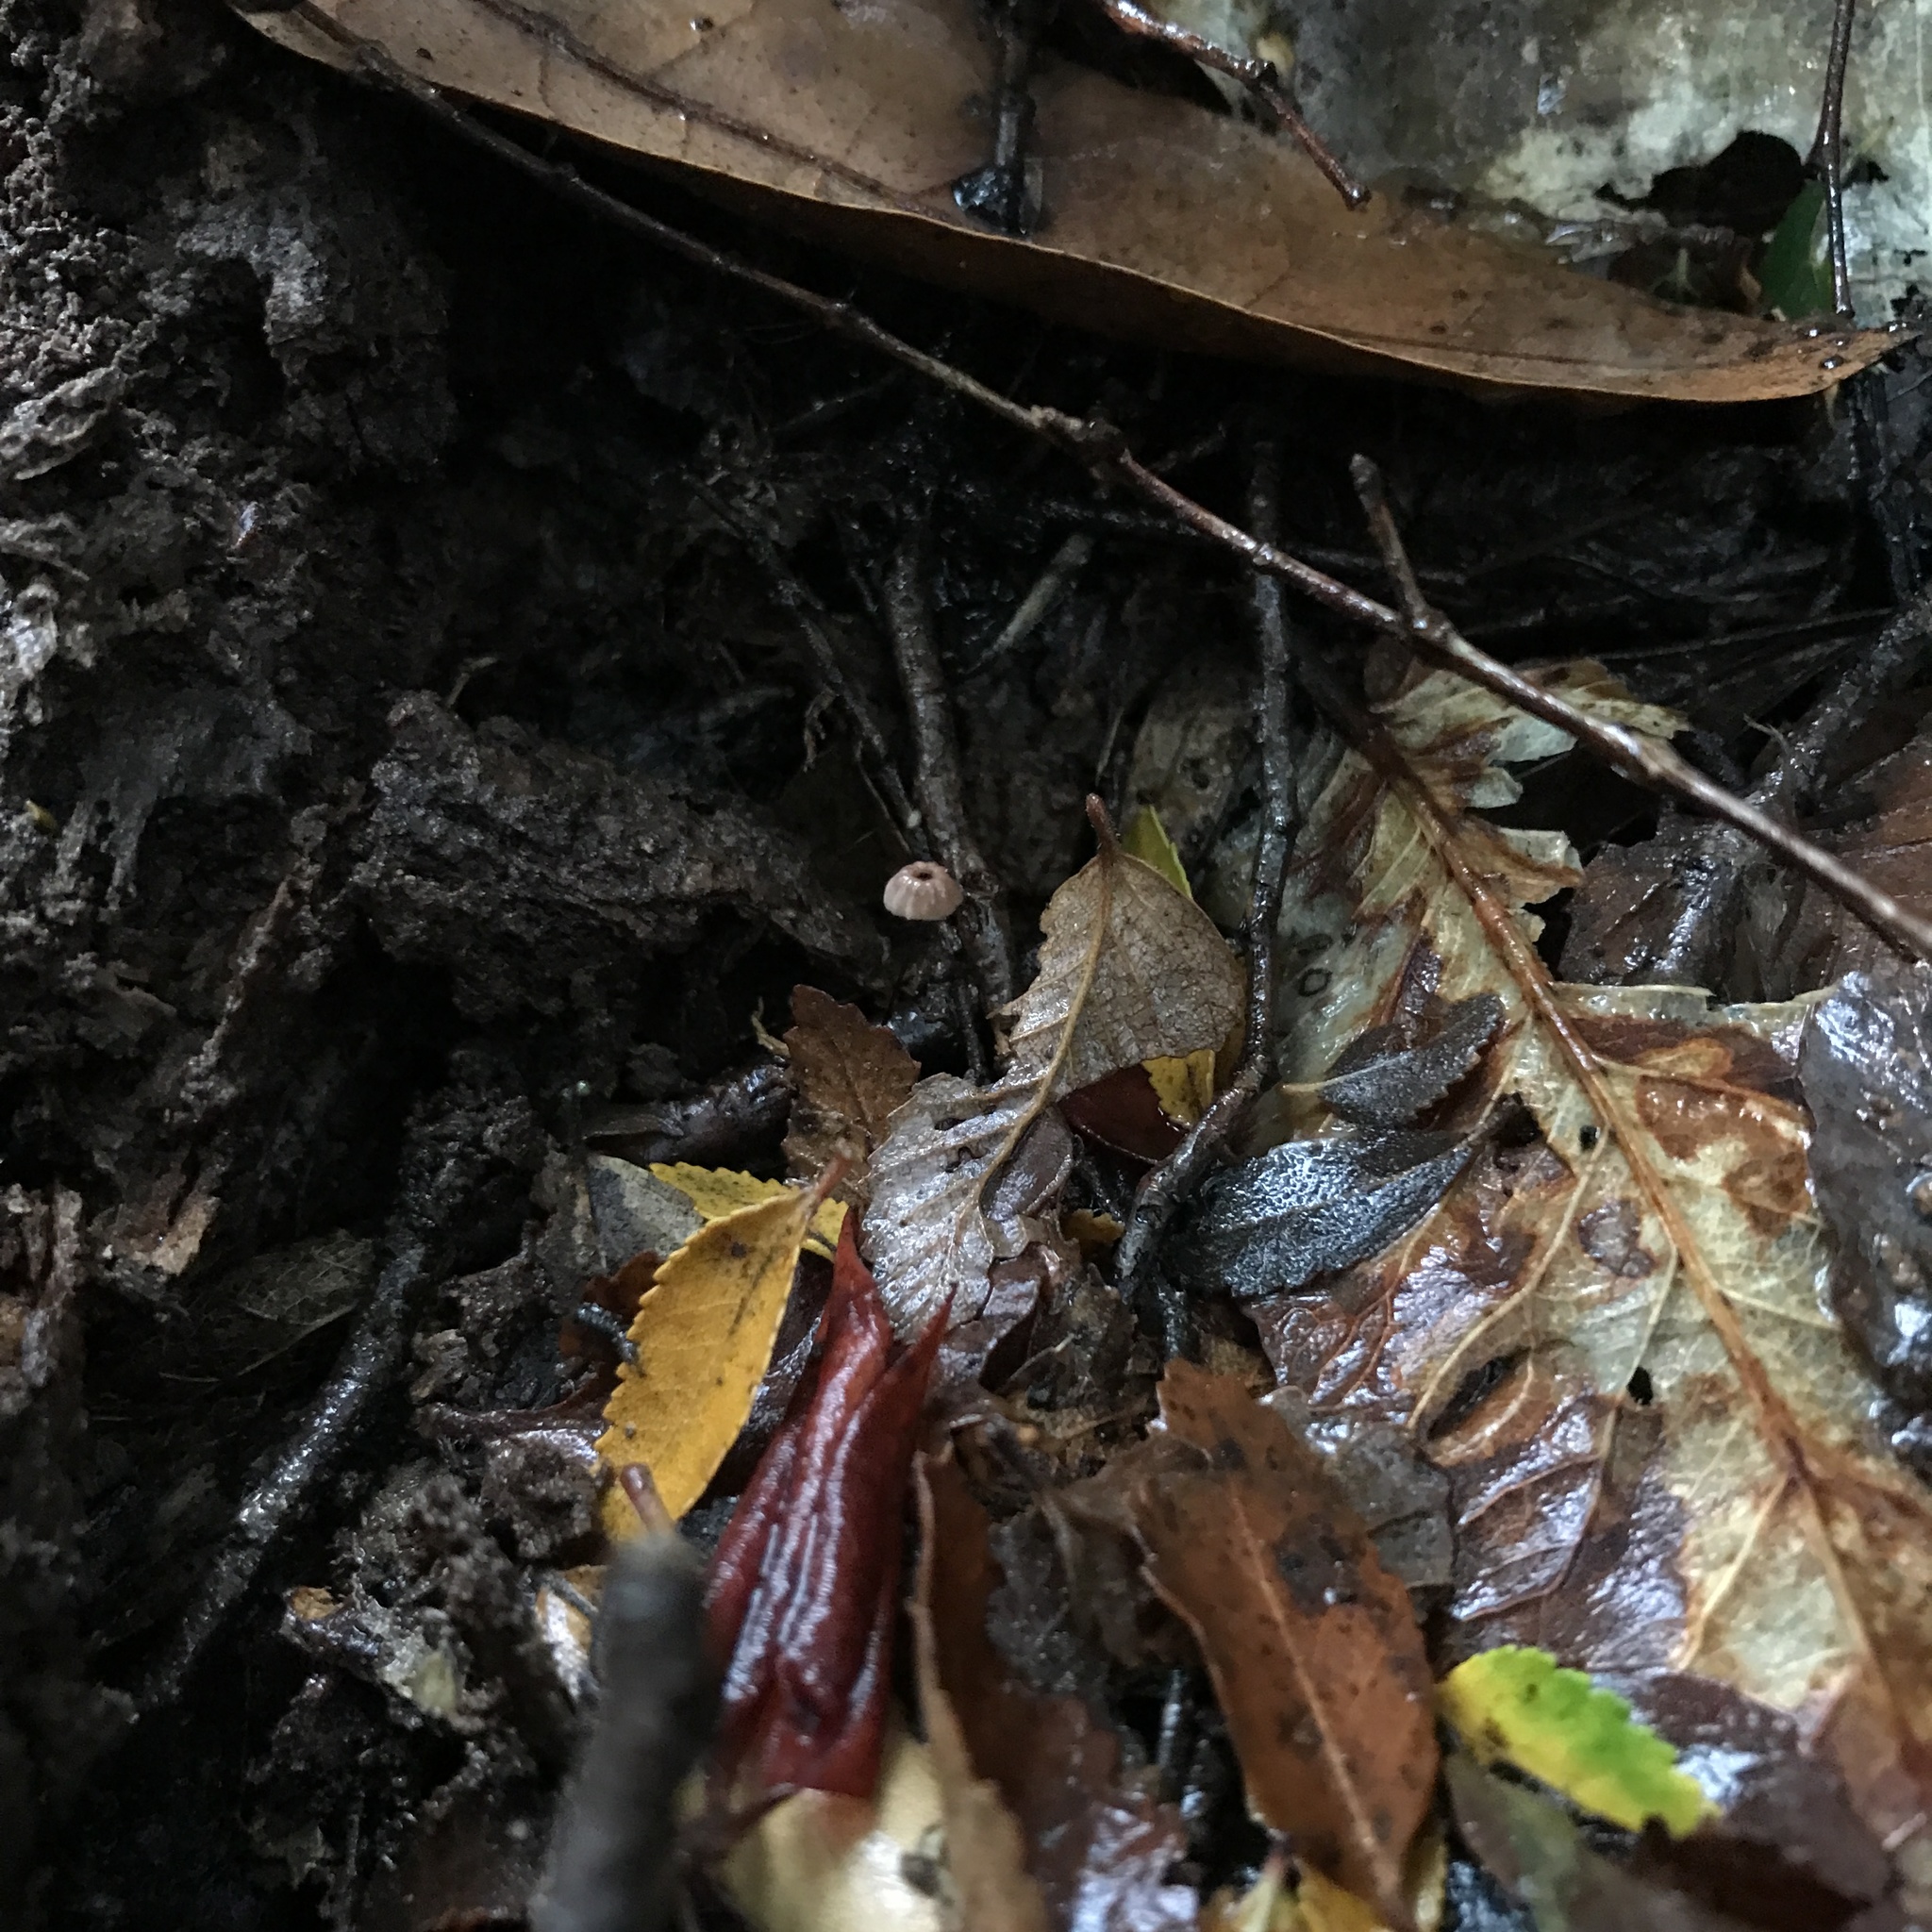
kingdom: Fungi
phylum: Basidiomycota
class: Agaricomycetes
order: Agaricales
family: Marasmiaceae
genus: Marasmius
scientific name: Marasmius nothomyrciae
